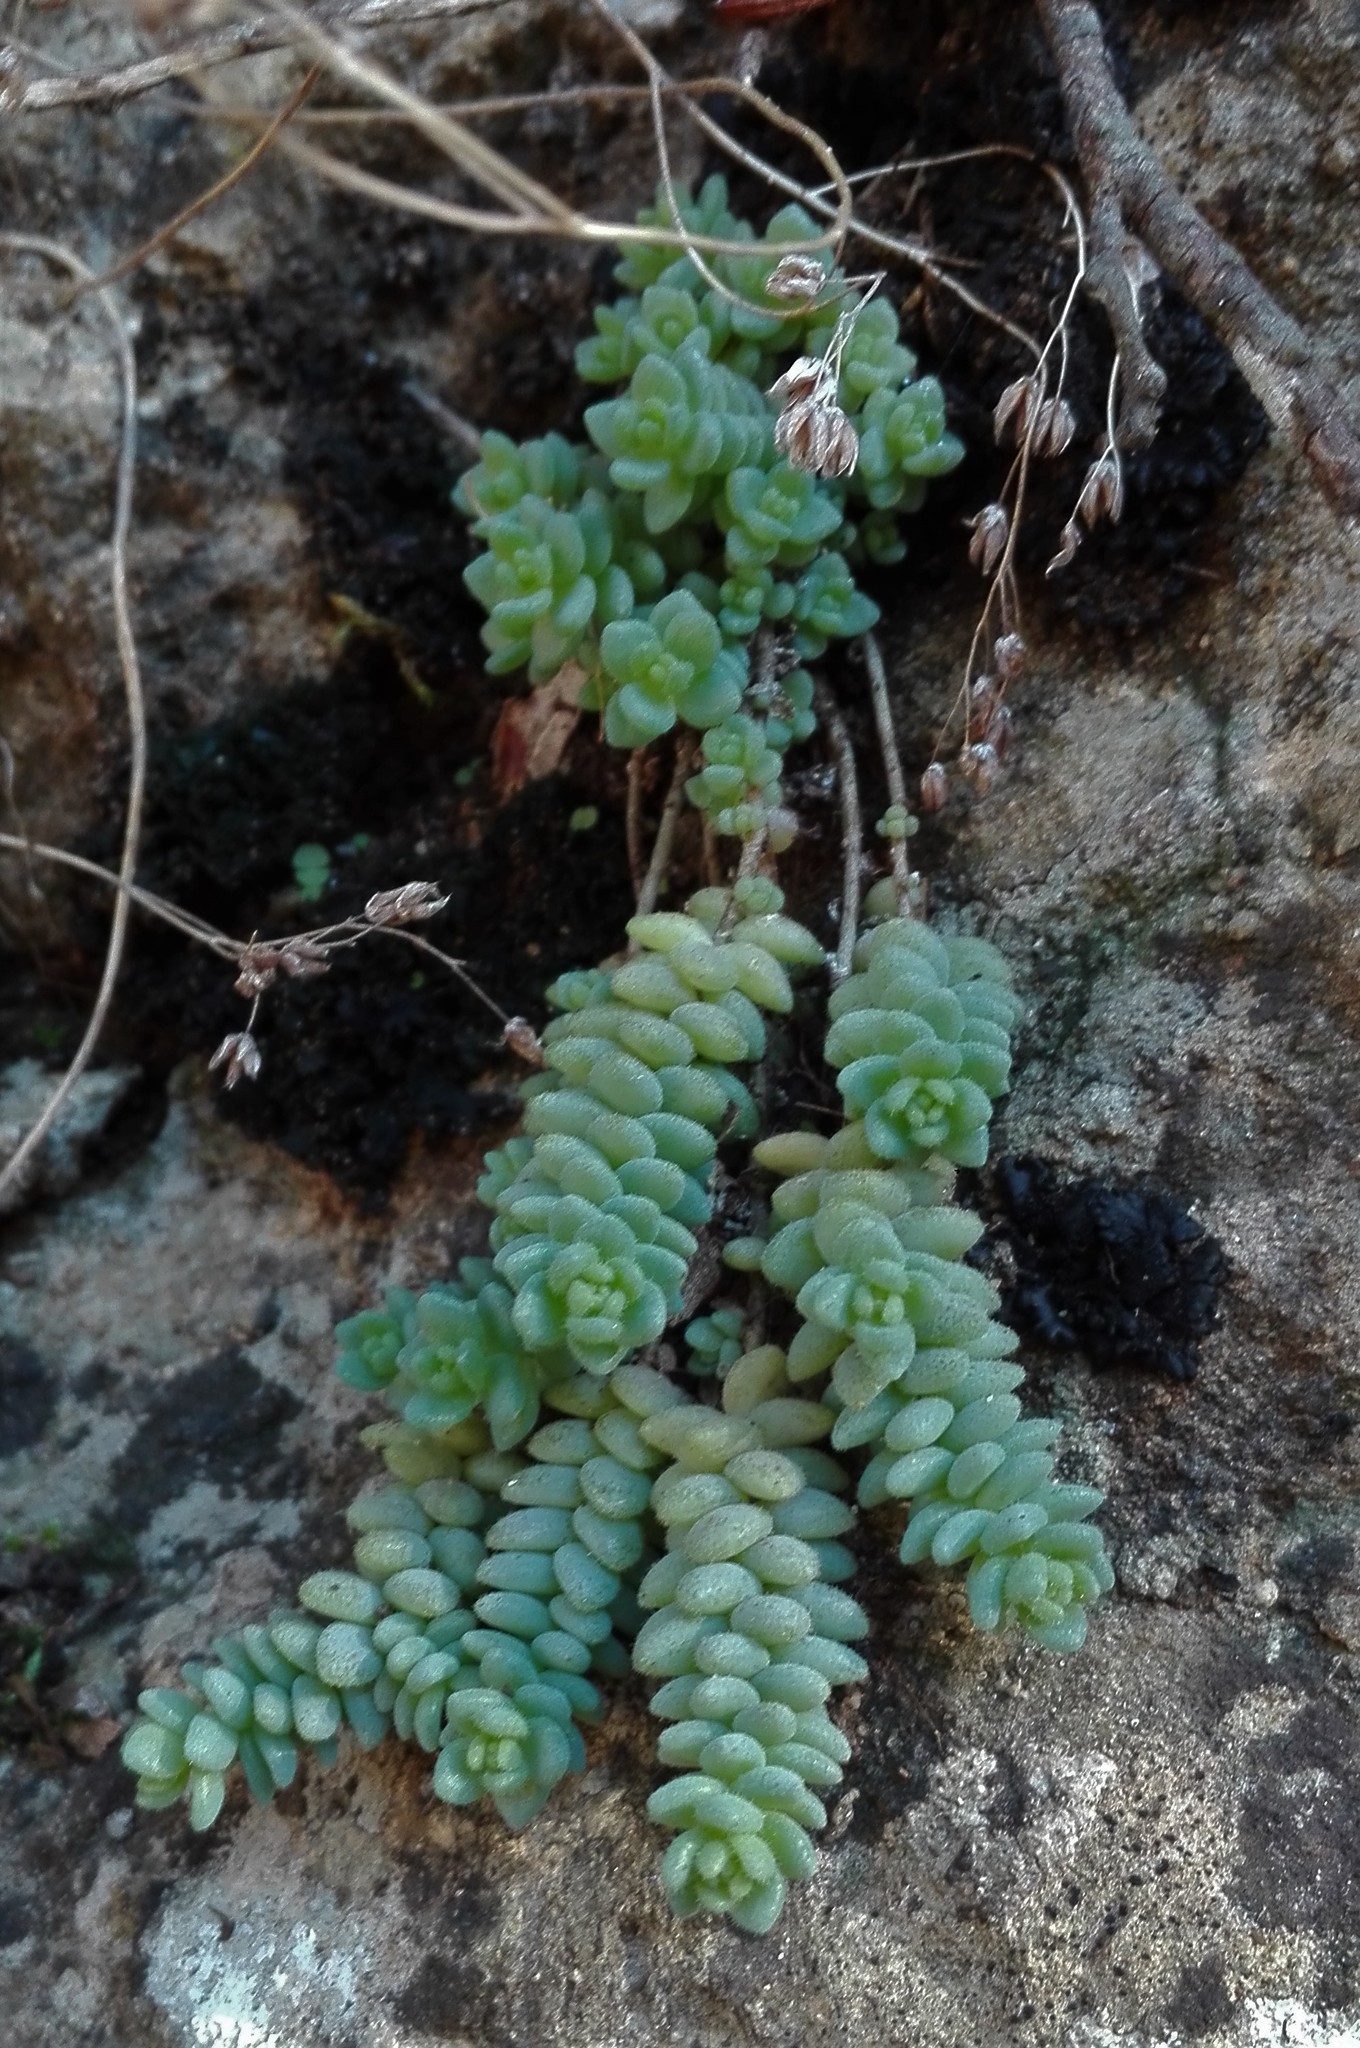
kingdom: Plantae
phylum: Tracheophyta
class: Magnoliopsida
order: Saxifragales
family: Crassulaceae
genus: Sedum
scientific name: Sedum dasyphyllum
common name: Thick-leaf stonecrop
